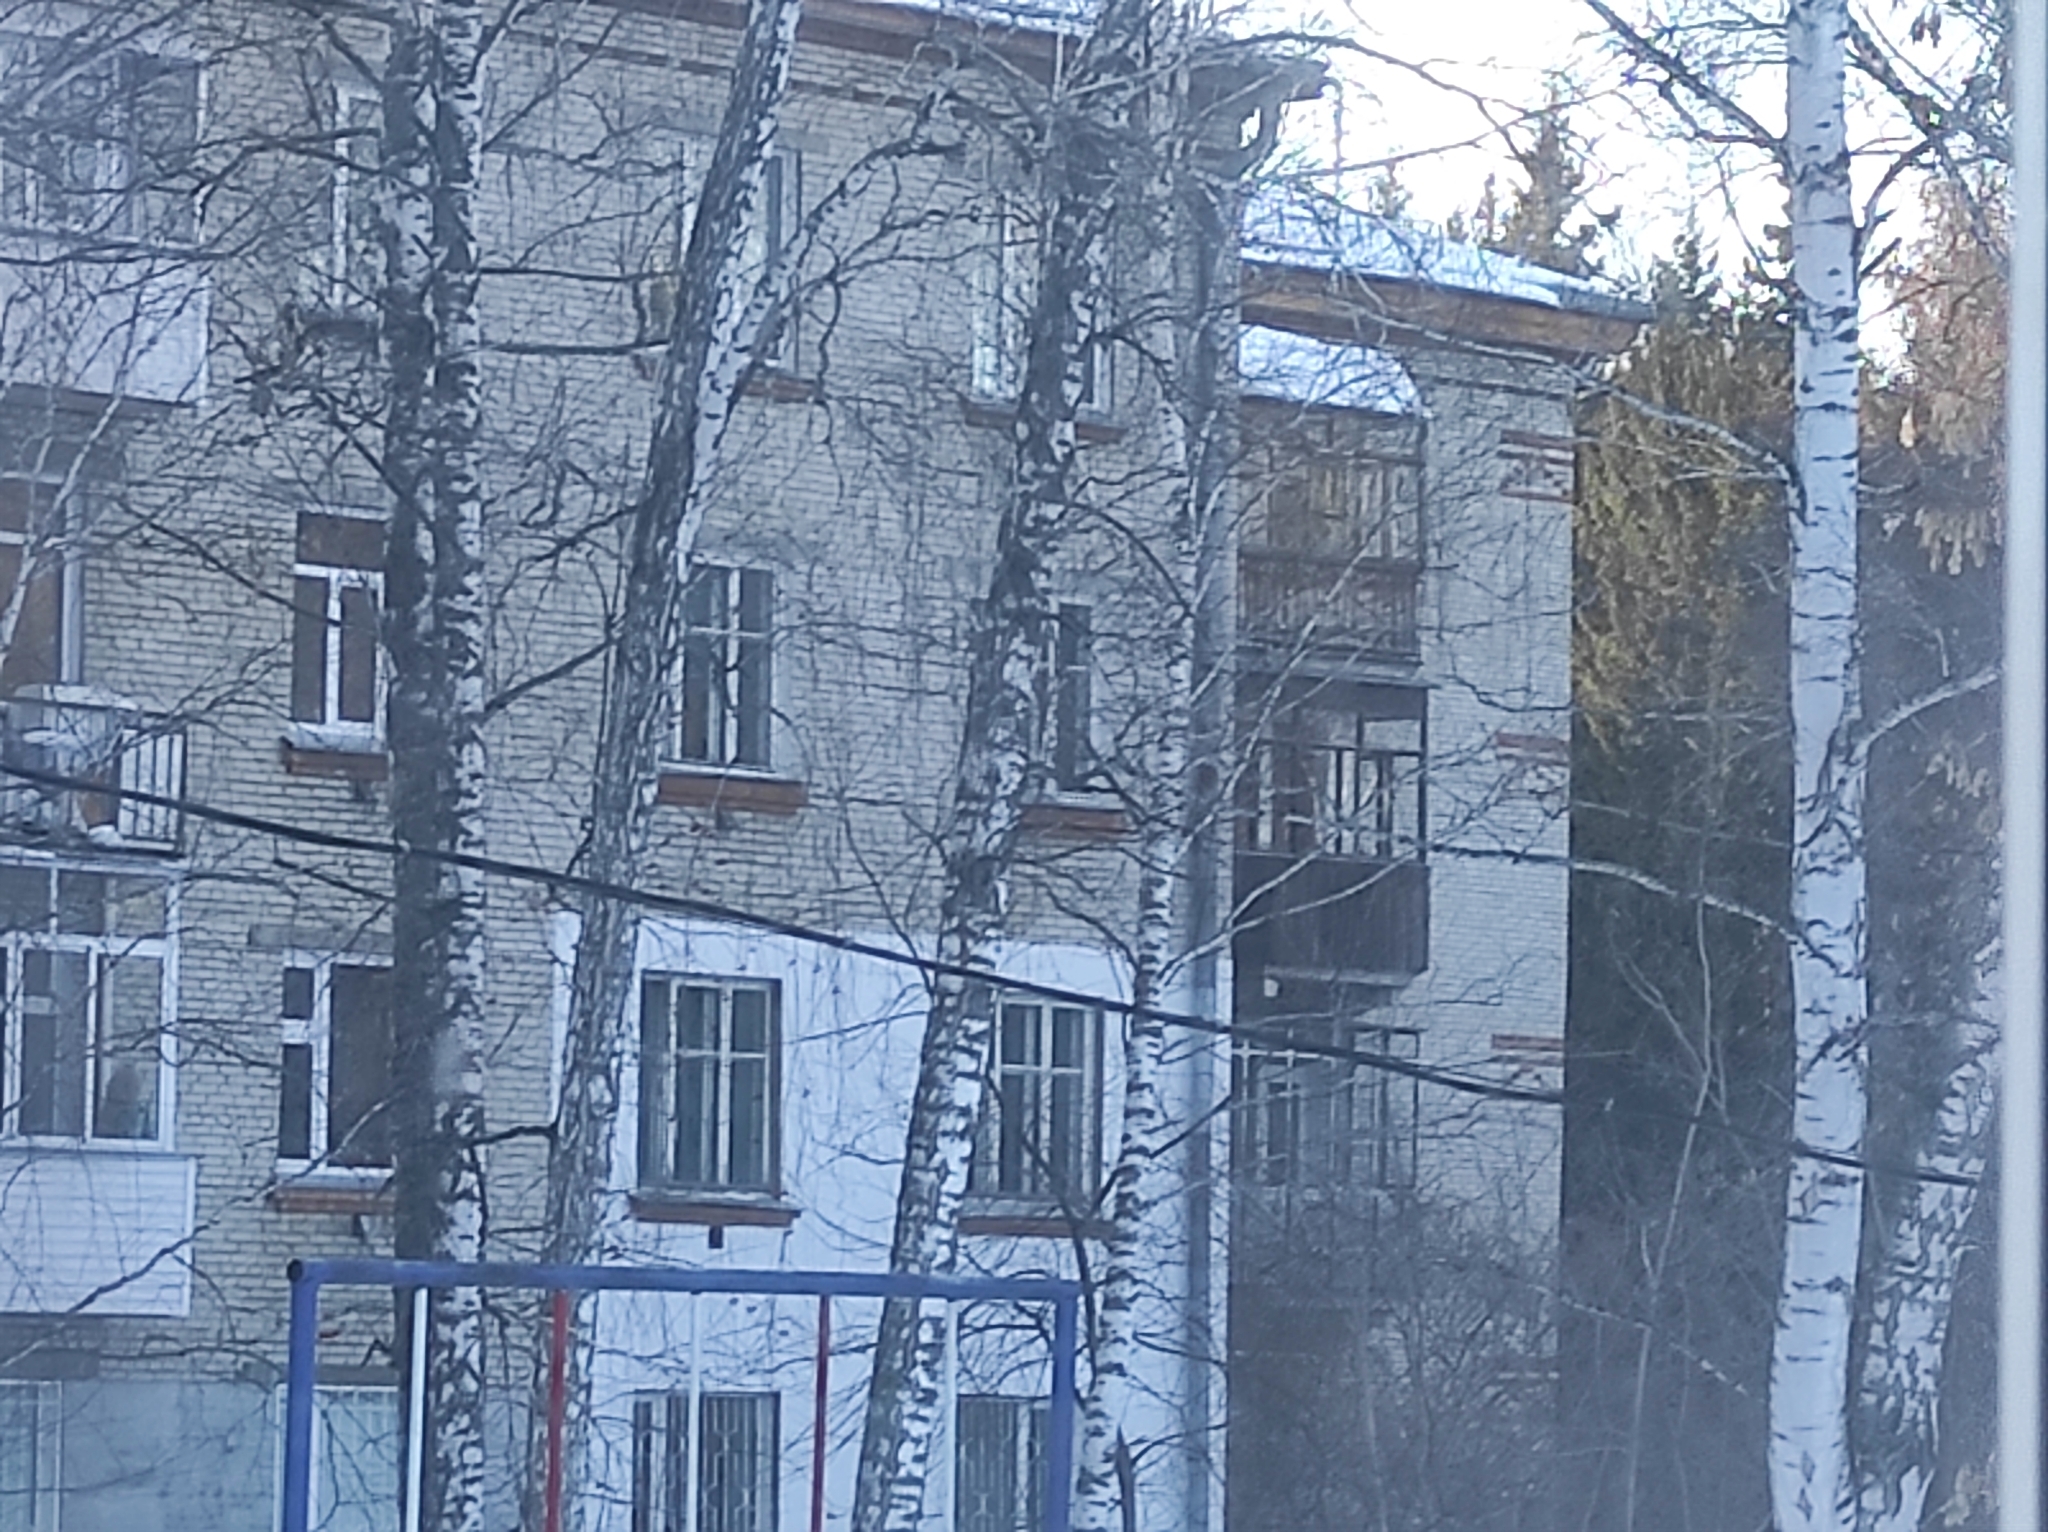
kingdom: Plantae
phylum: Tracheophyta
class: Magnoliopsida
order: Fagales
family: Betulaceae
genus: Betula
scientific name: Betula pendula
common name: Silver birch
